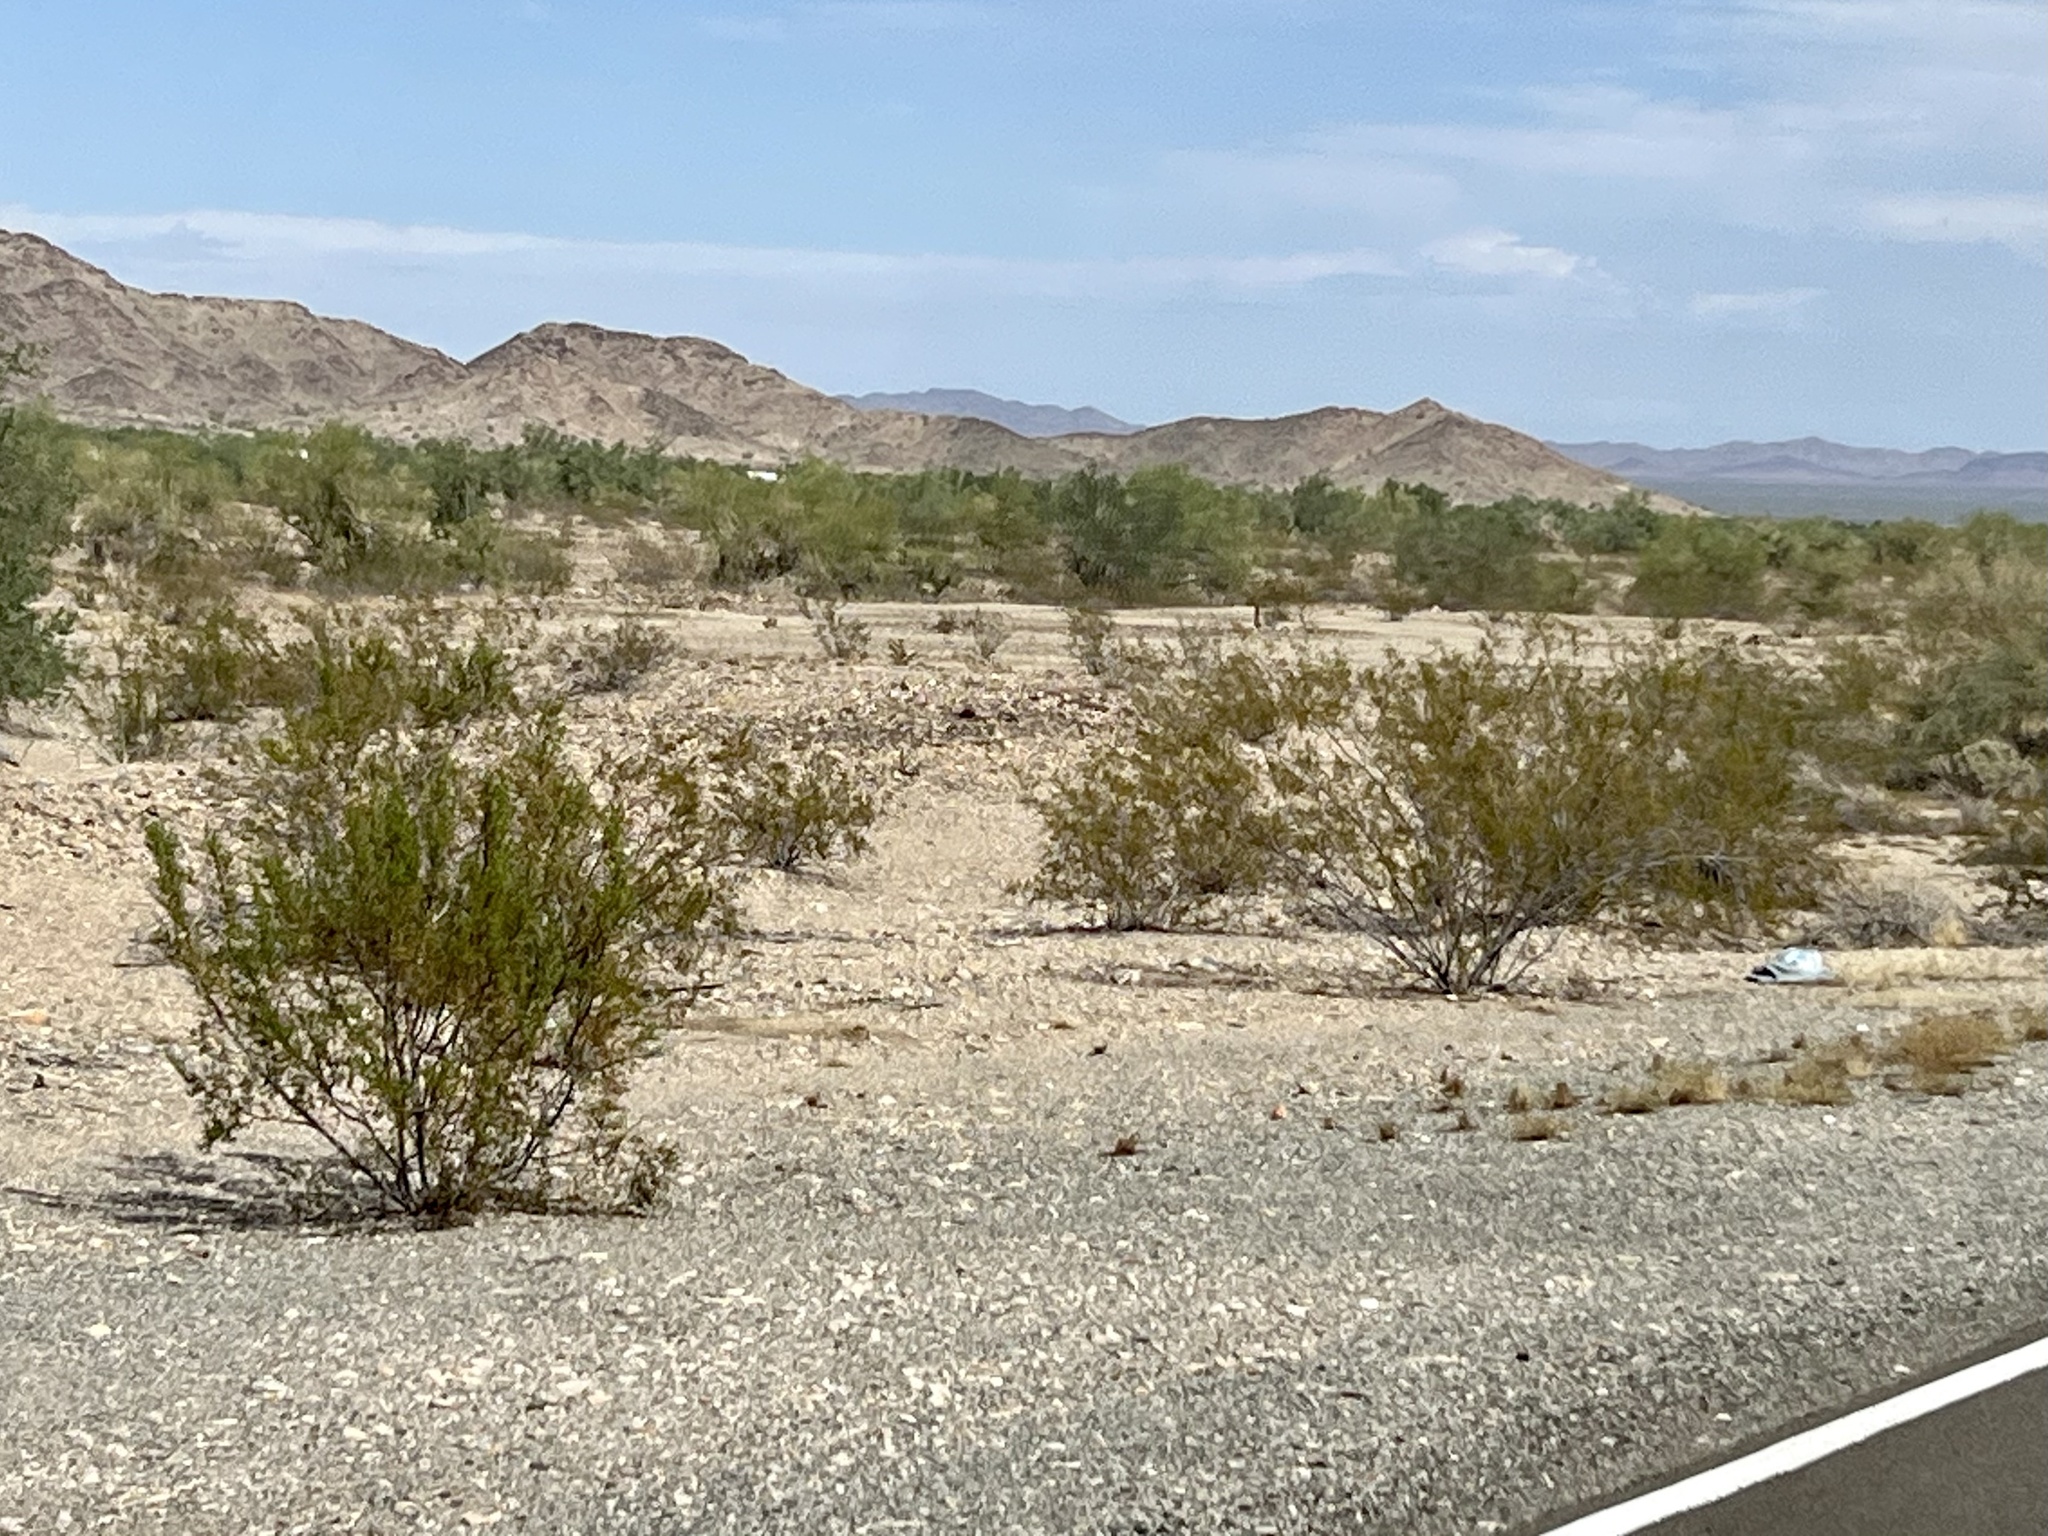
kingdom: Plantae
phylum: Tracheophyta
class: Magnoliopsida
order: Zygophyllales
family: Zygophyllaceae
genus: Larrea
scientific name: Larrea tridentata
